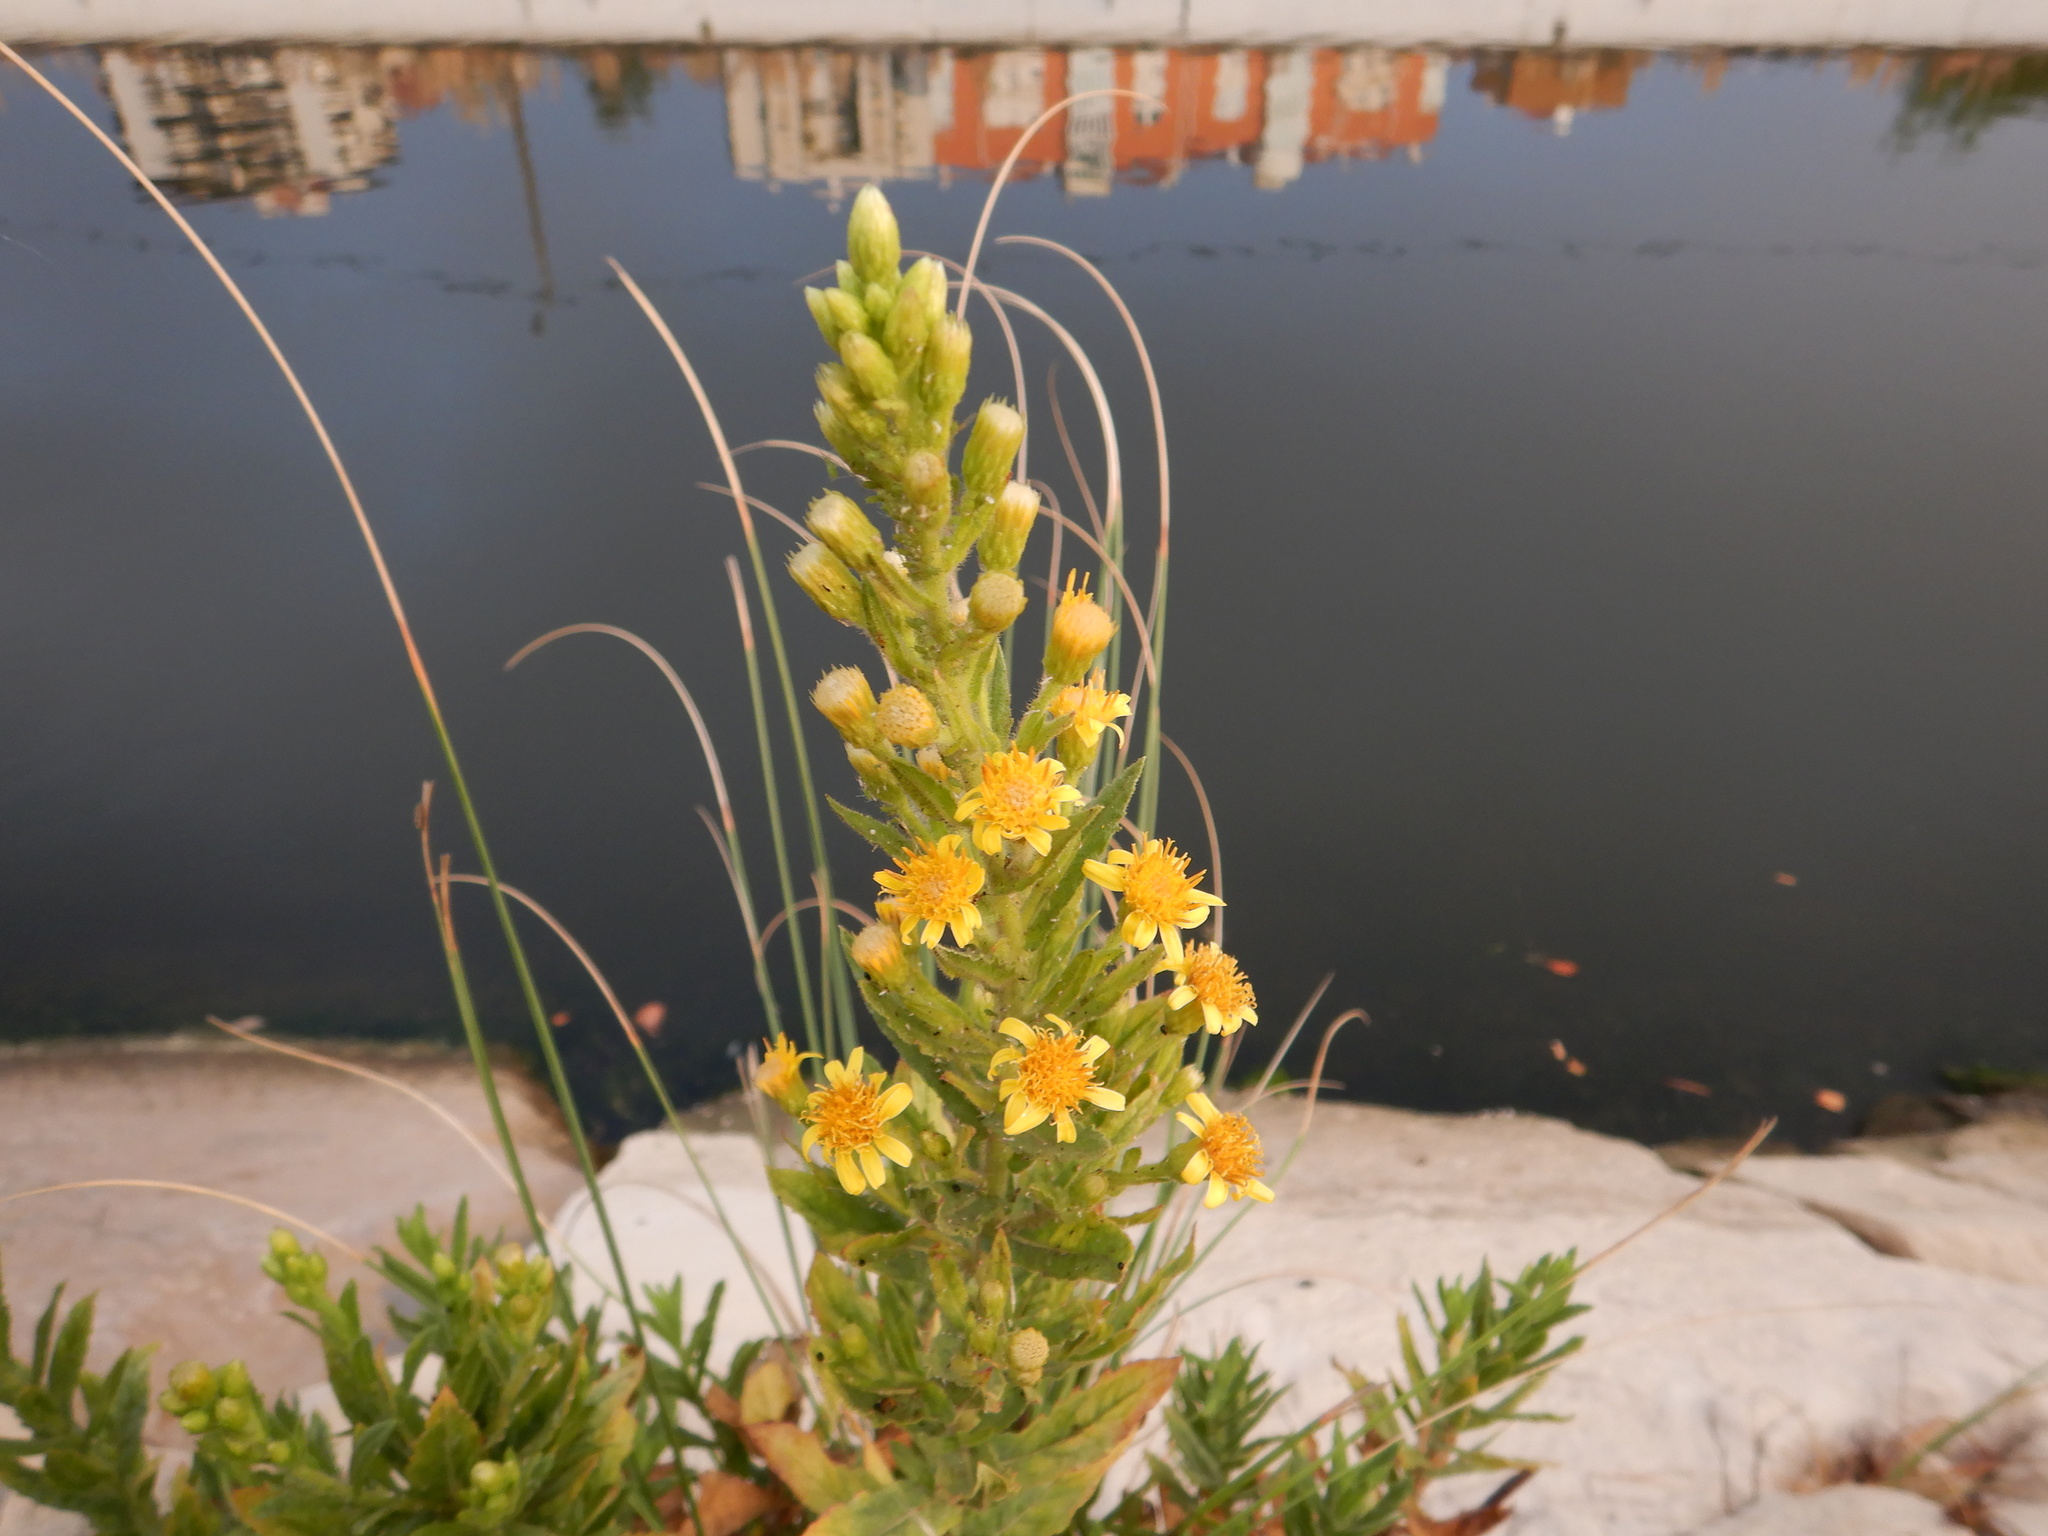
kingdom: Plantae
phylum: Tracheophyta
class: Magnoliopsida
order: Asterales
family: Asteraceae
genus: Dittrichia
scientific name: Dittrichia viscosa
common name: Woody fleabane
